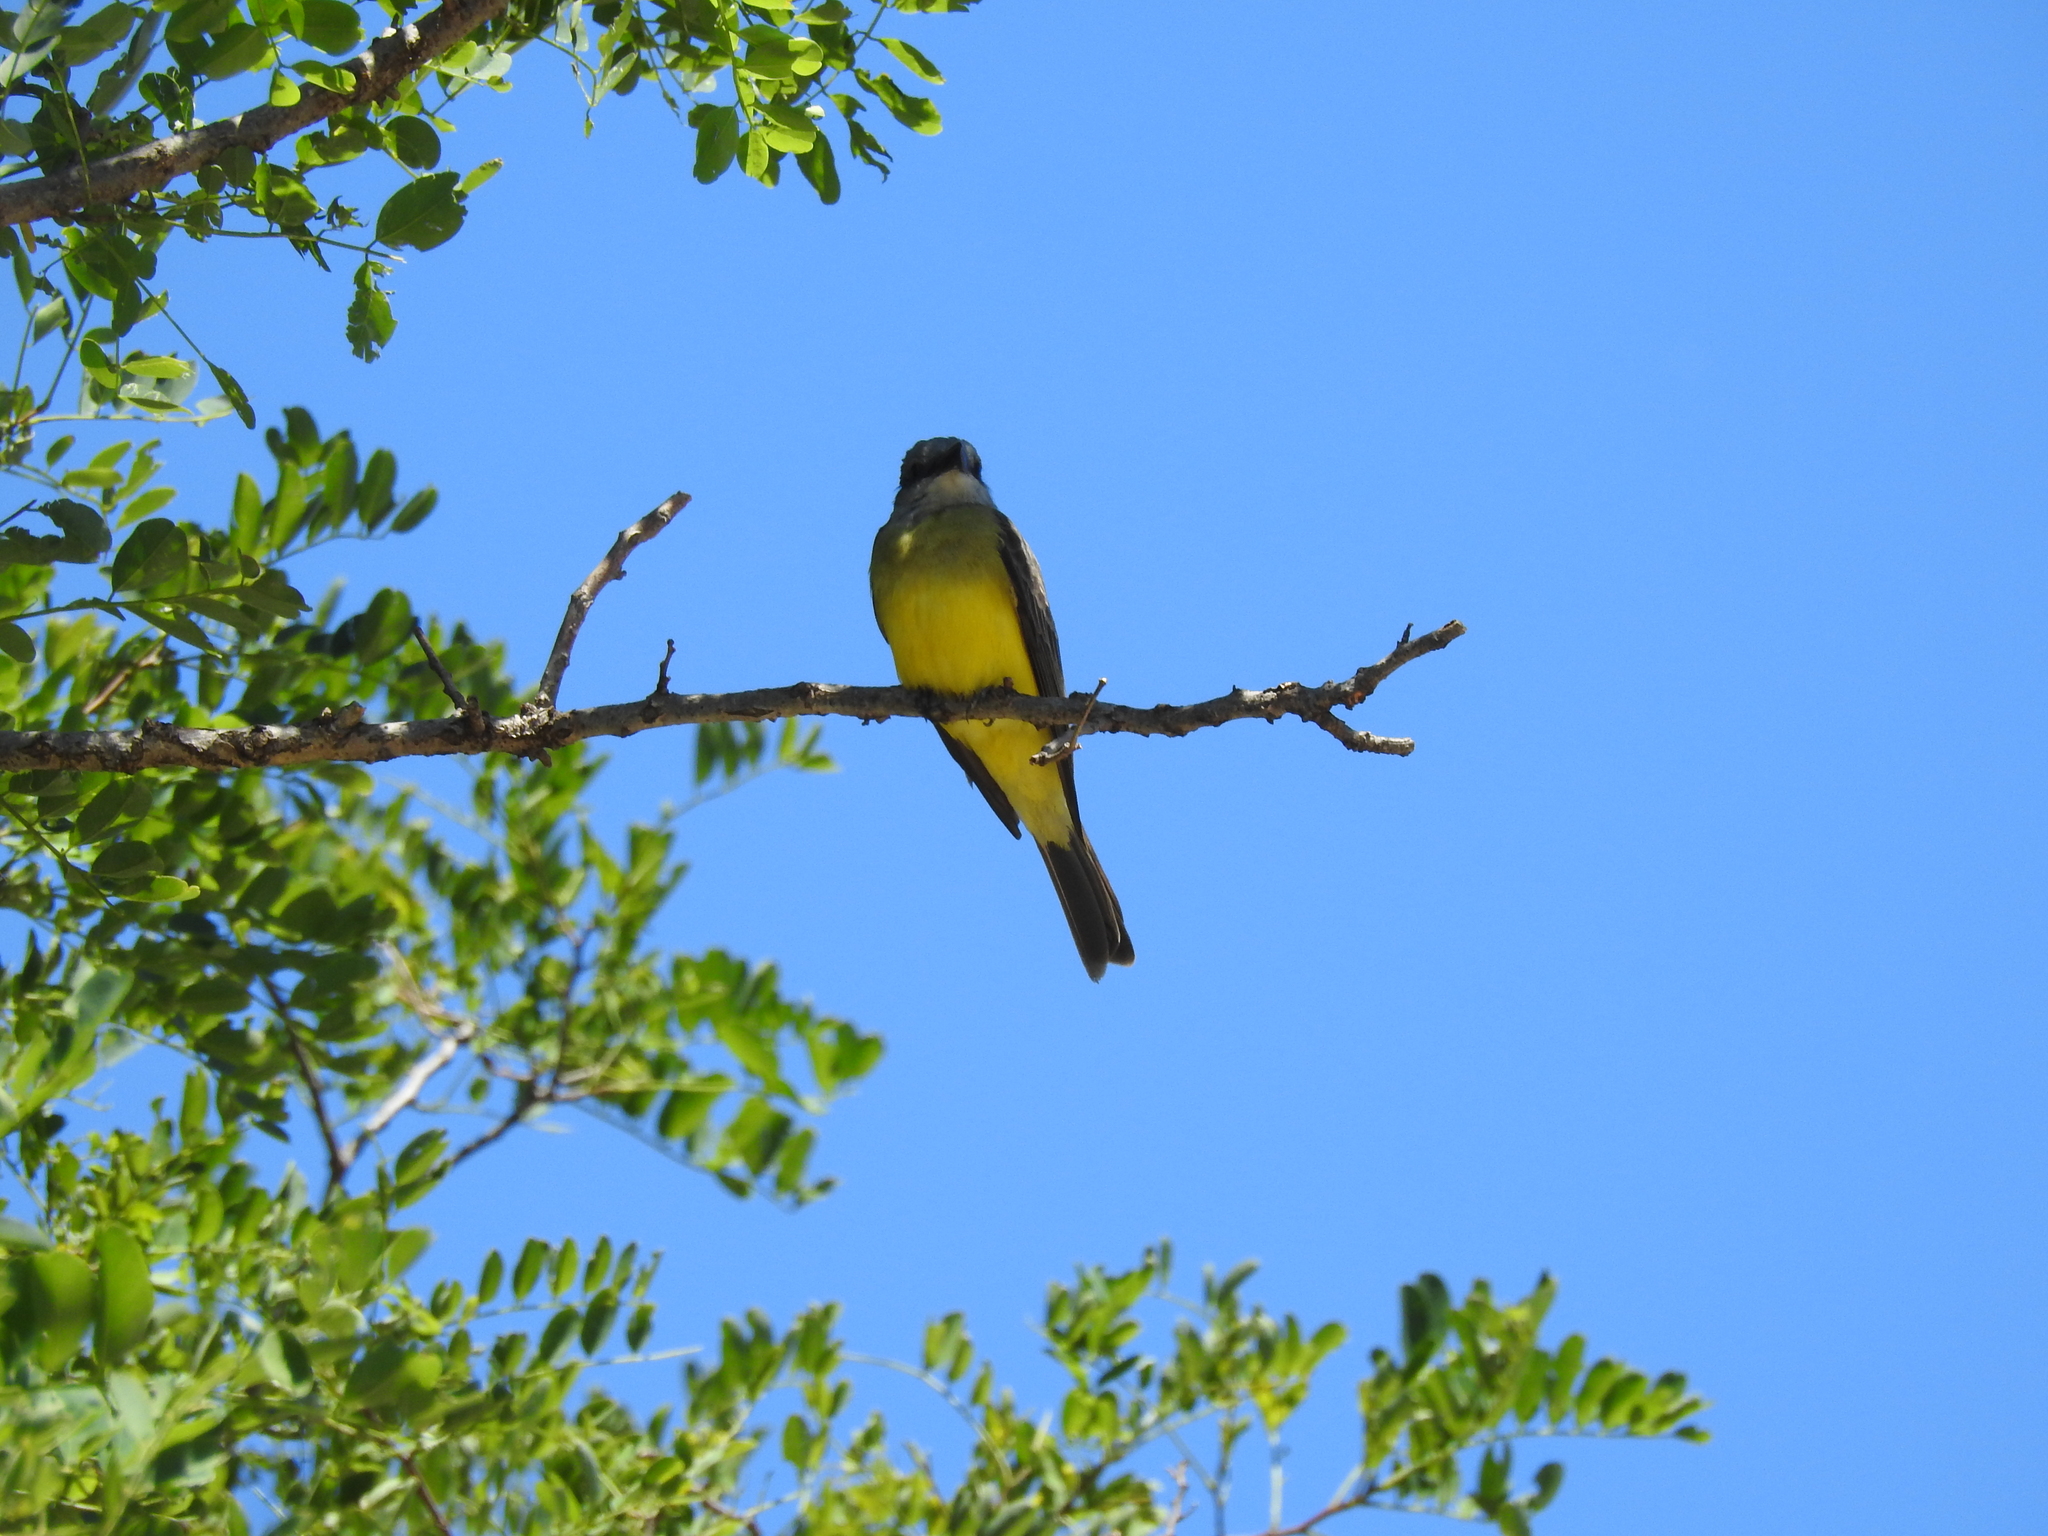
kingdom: Animalia
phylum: Chordata
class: Aves
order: Passeriformes
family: Tyrannidae
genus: Tyrannus
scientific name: Tyrannus melancholicus
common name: Tropical kingbird
